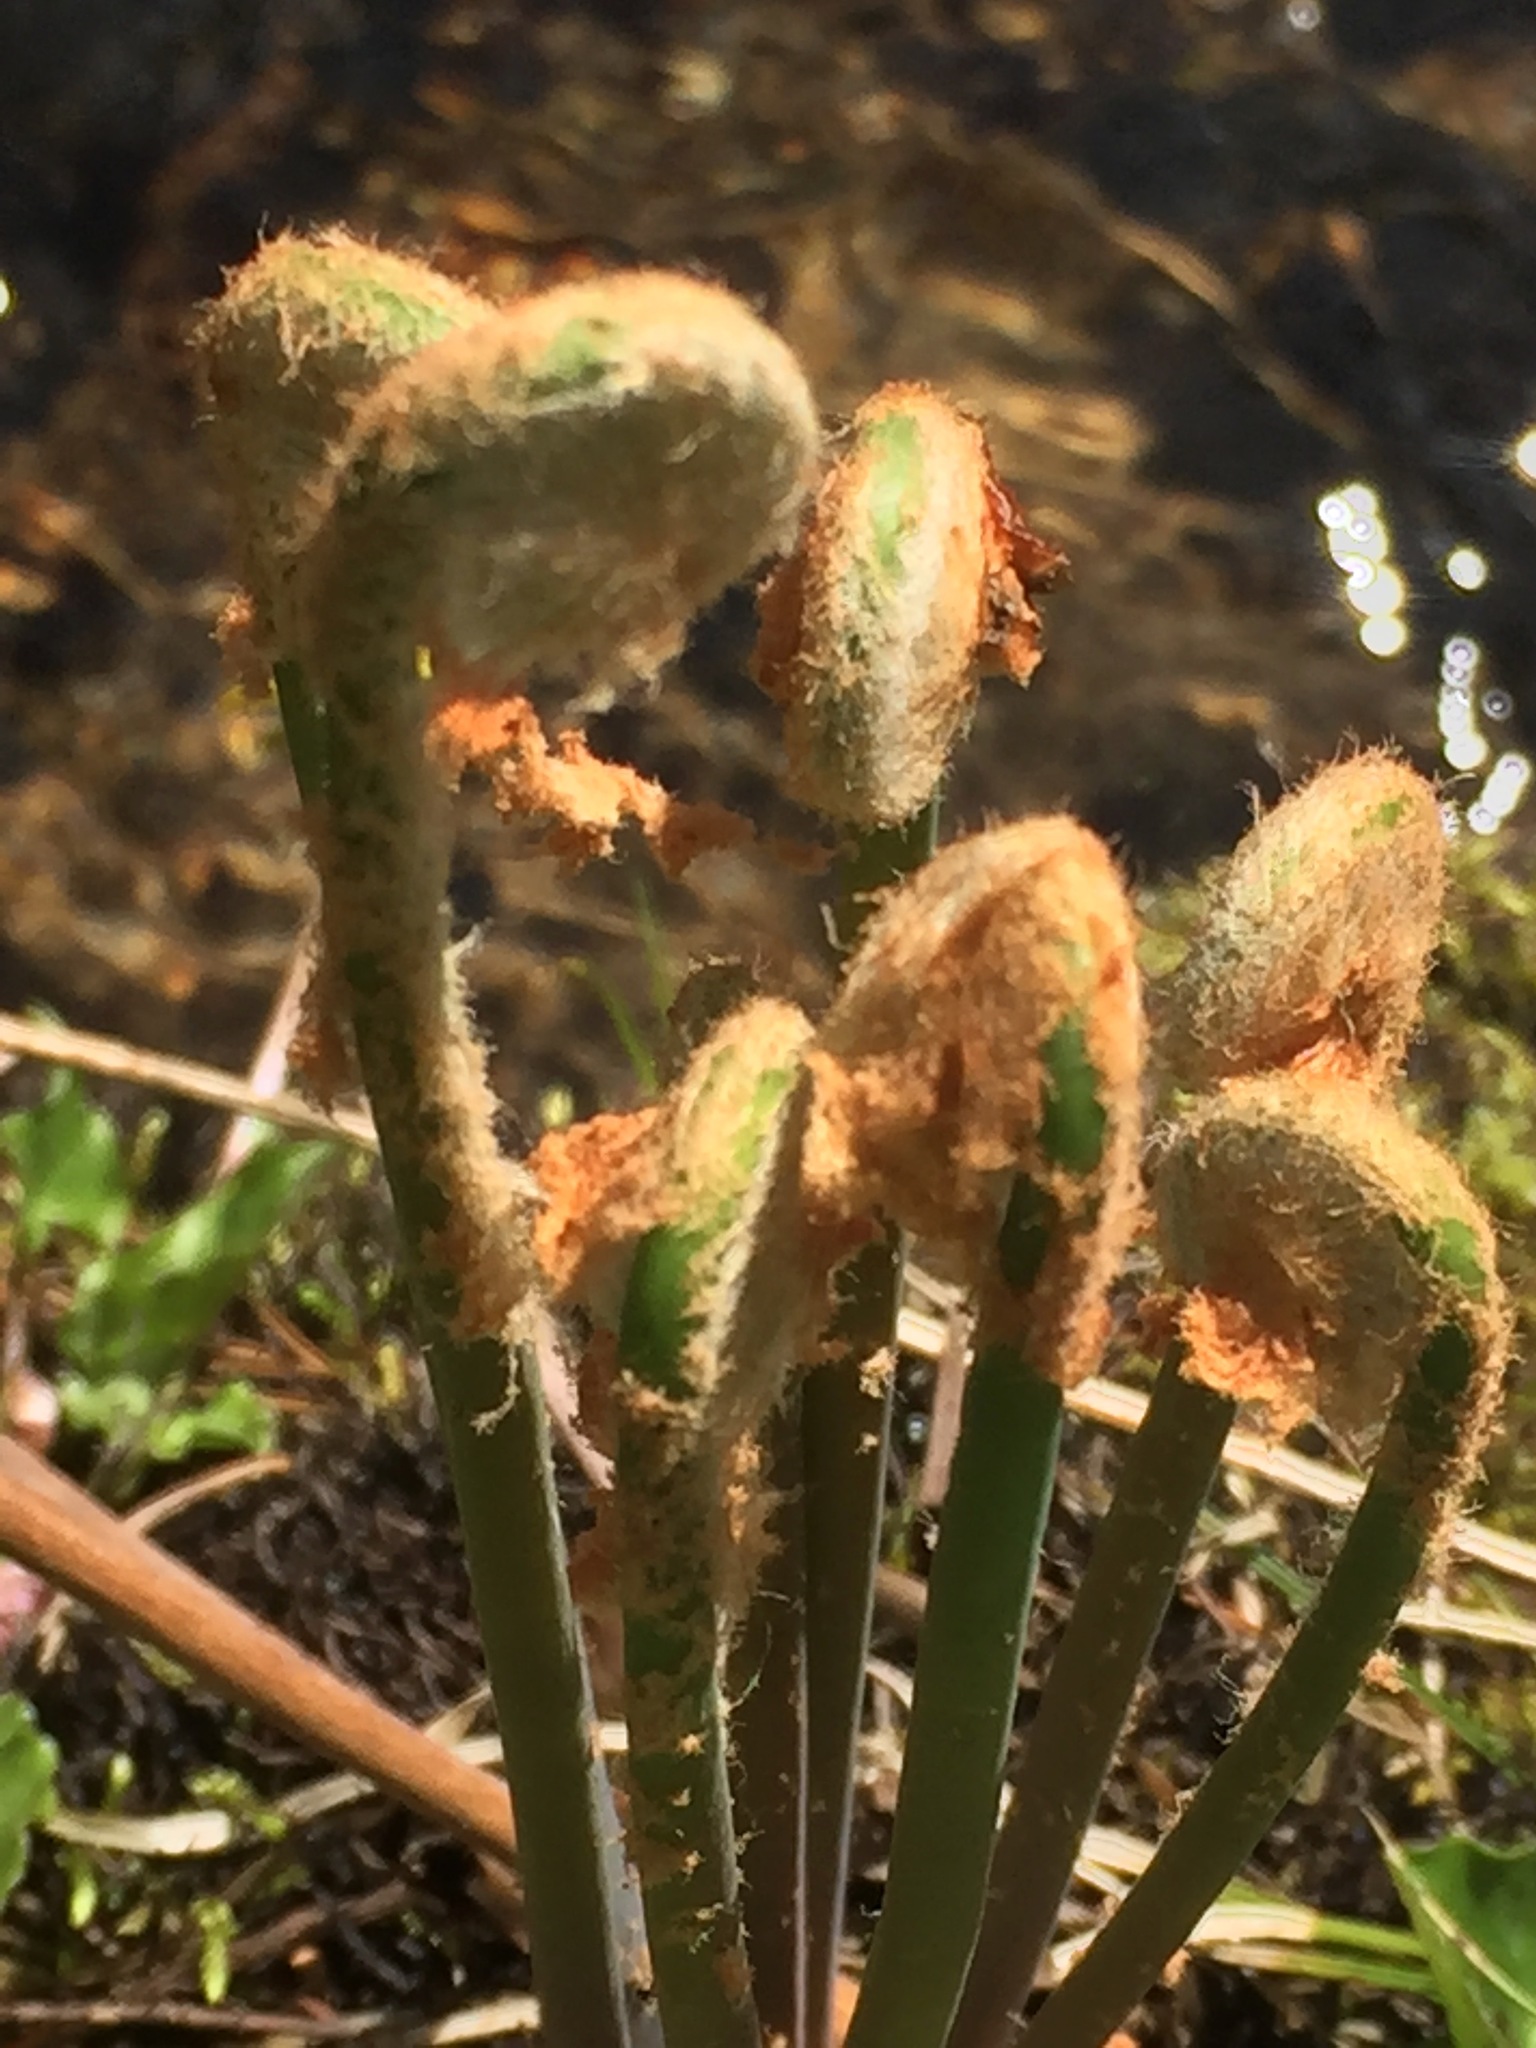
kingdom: Plantae
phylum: Tracheophyta
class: Polypodiopsida
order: Osmundales
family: Osmundaceae
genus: Claytosmunda
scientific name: Claytosmunda claytoniana
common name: Clayton's fern
